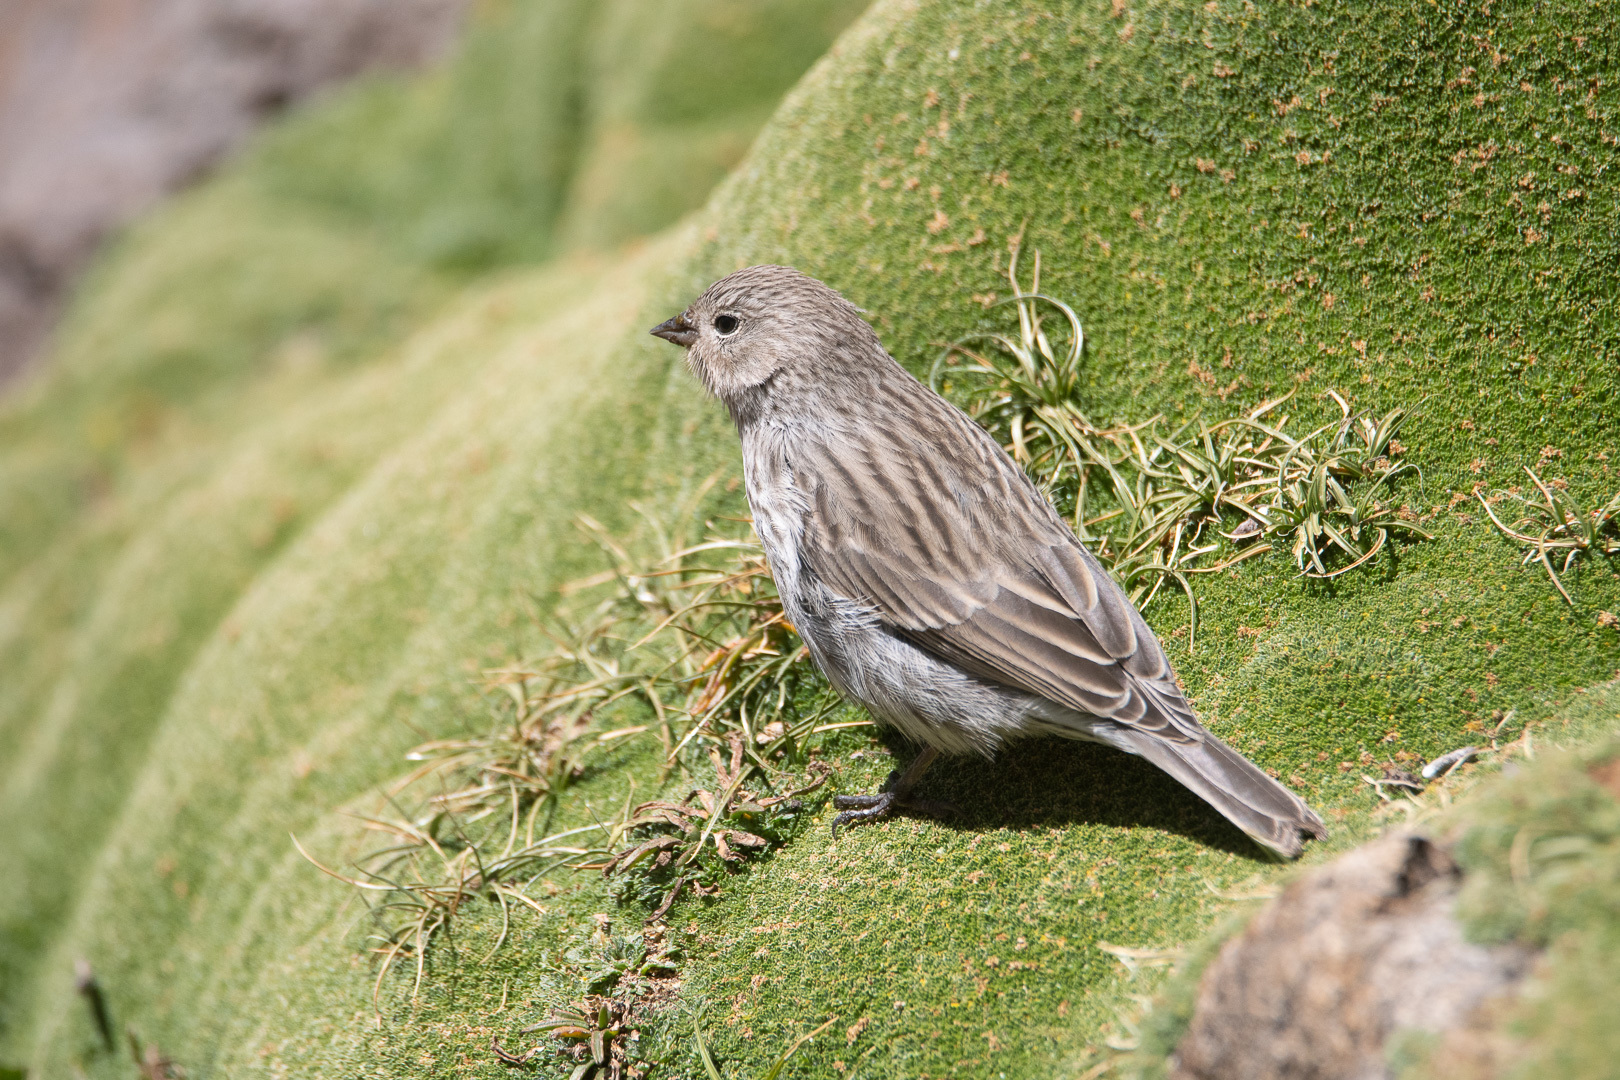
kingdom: Animalia
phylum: Chordata
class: Aves
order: Passeriformes
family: Thraupidae
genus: Geospizopsis
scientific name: Geospizopsis unicolor
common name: Plumbeous sierra-finch
